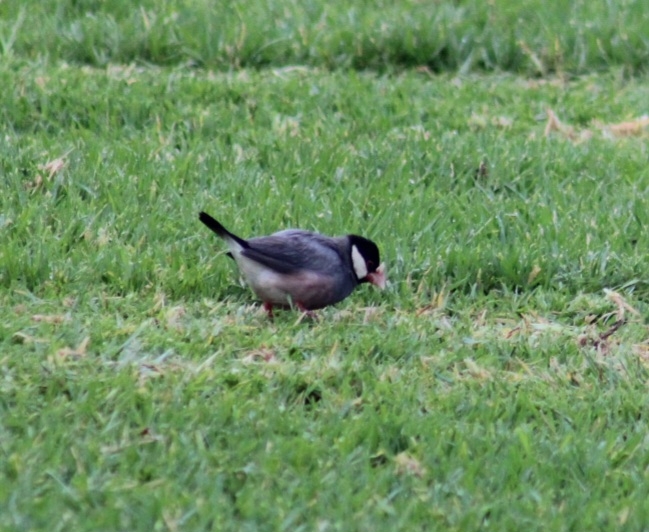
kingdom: Animalia
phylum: Chordata
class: Aves
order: Passeriformes
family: Estrildidae
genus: Lonchura
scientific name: Lonchura oryzivora
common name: Java sparrow
